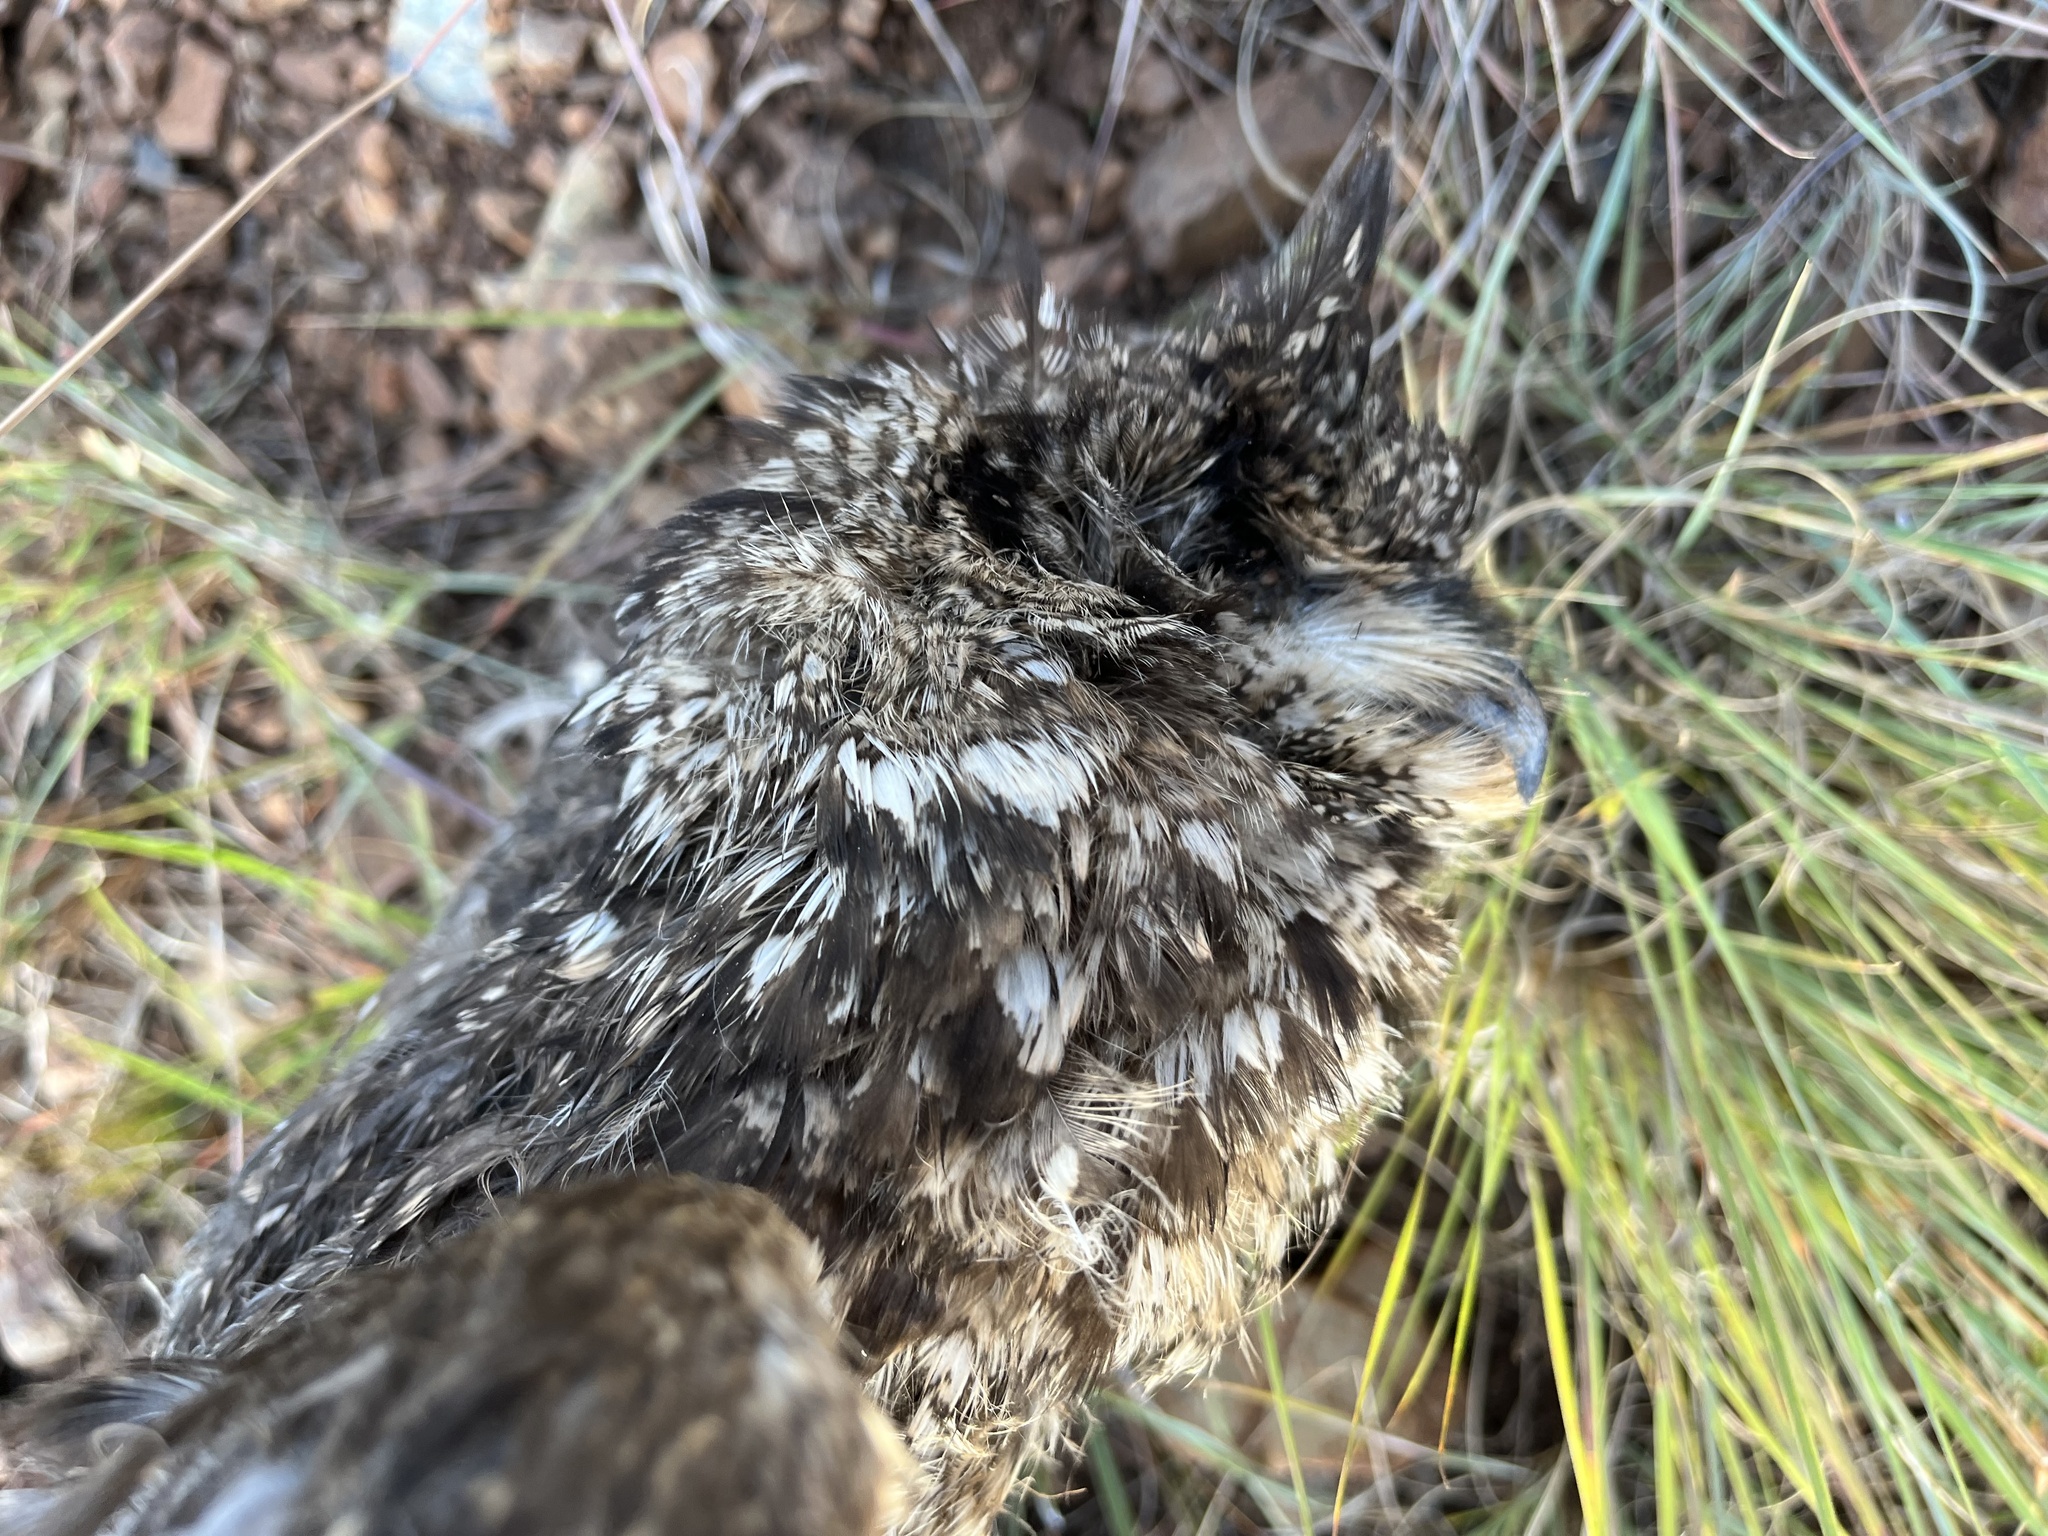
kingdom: Animalia
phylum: Chordata
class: Aves
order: Strigiformes
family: Strigidae
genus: Bubo
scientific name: Bubo africanus
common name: Spotted eagle-owl
